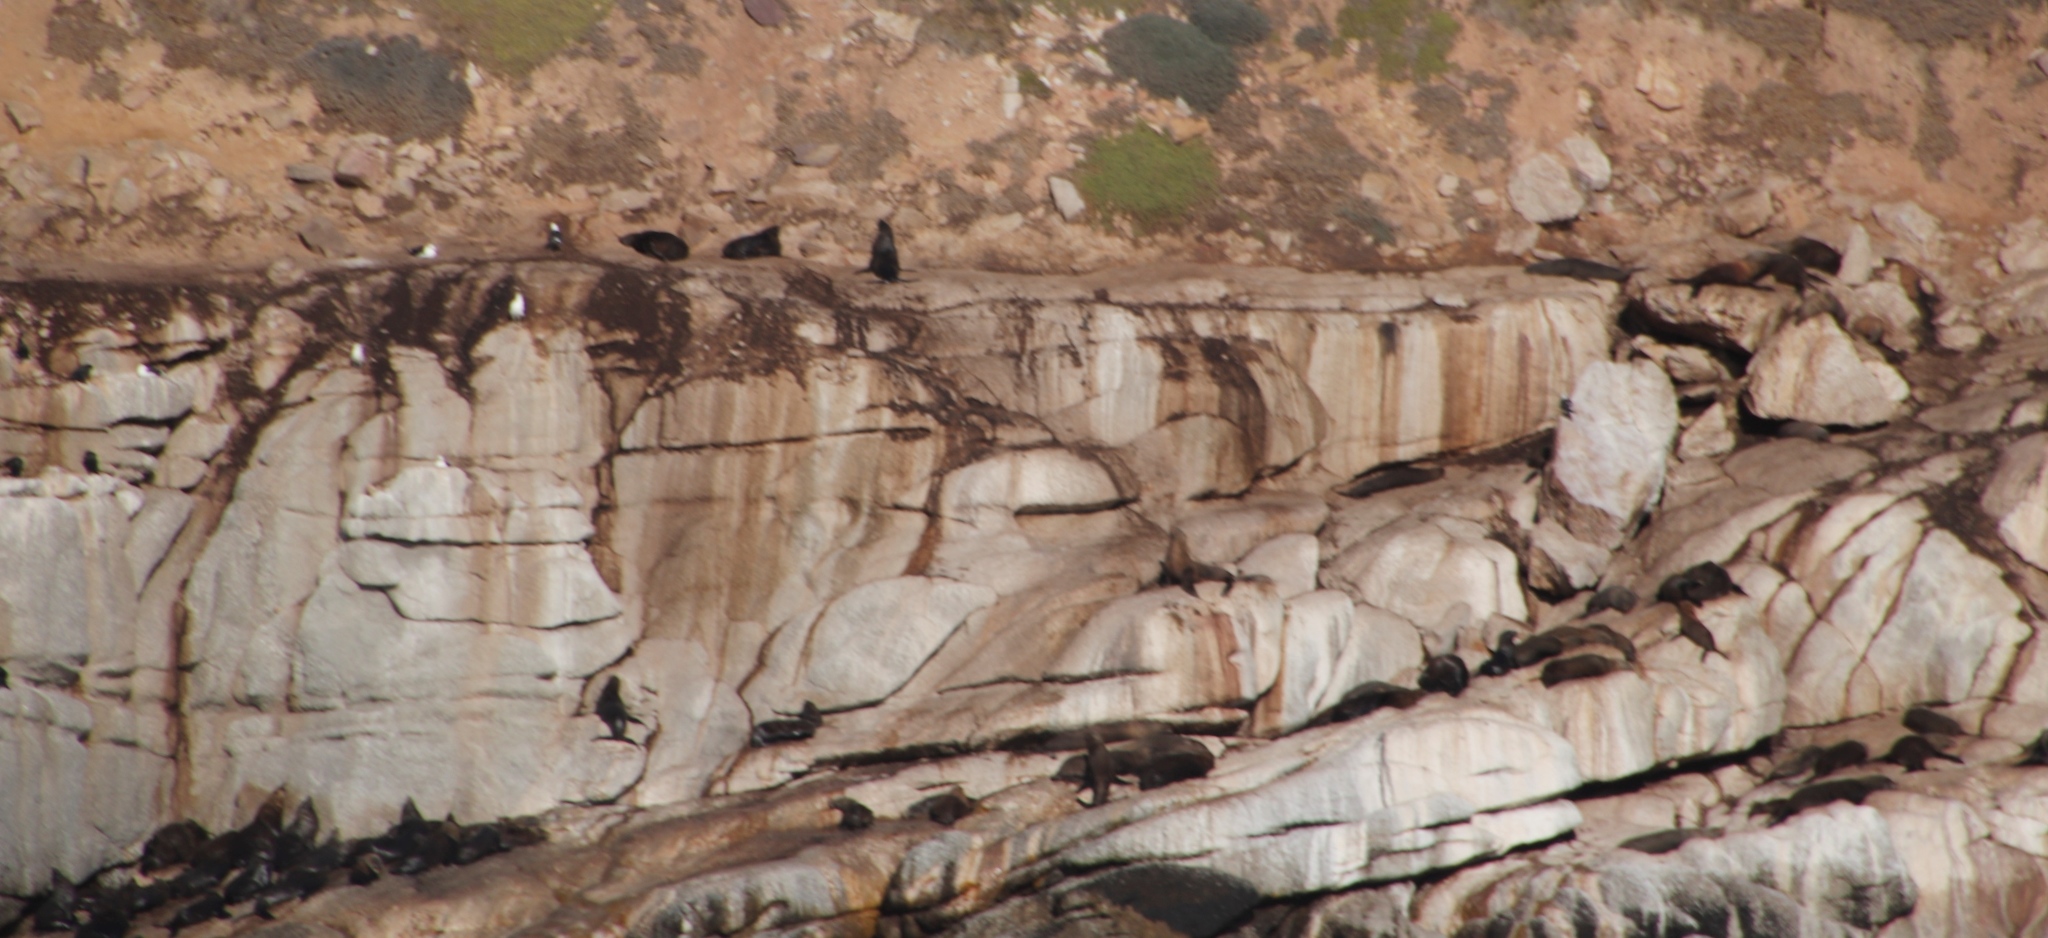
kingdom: Animalia
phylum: Chordata
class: Mammalia
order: Carnivora
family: Otariidae
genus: Arctocephalus
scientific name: Arctocephalus pusillus
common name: Brown fur seal
